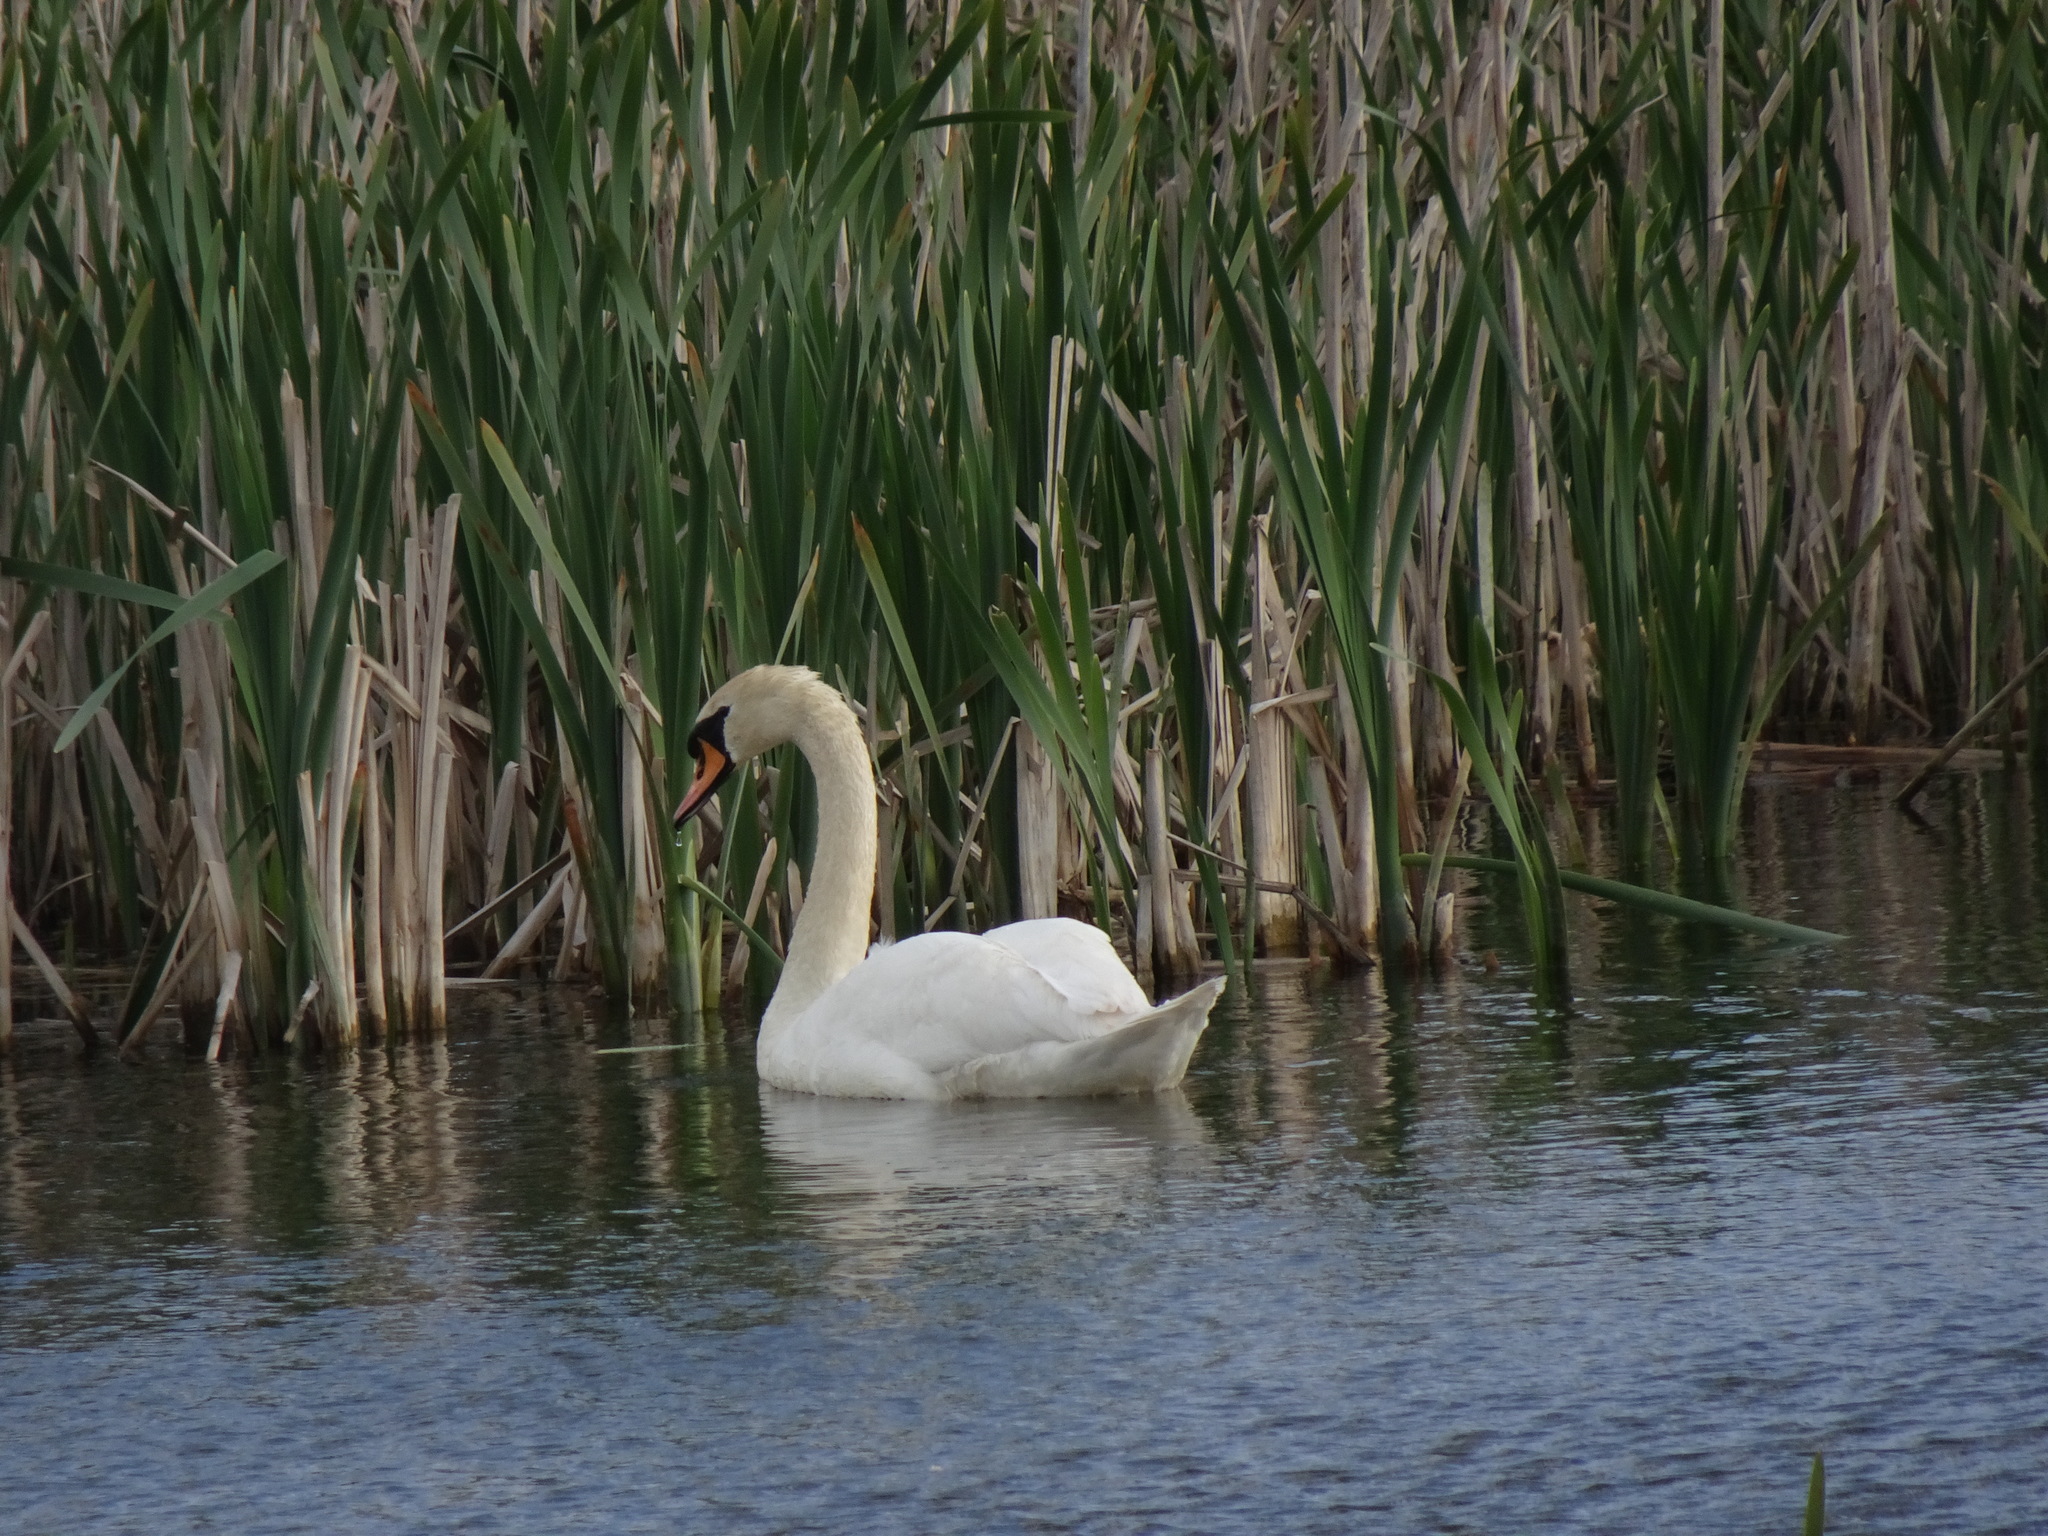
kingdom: Animalia
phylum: Chordata
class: Aves
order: Anseriformes
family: Anatidae
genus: Cygnus
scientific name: Cygnus olor
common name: Mute swan
